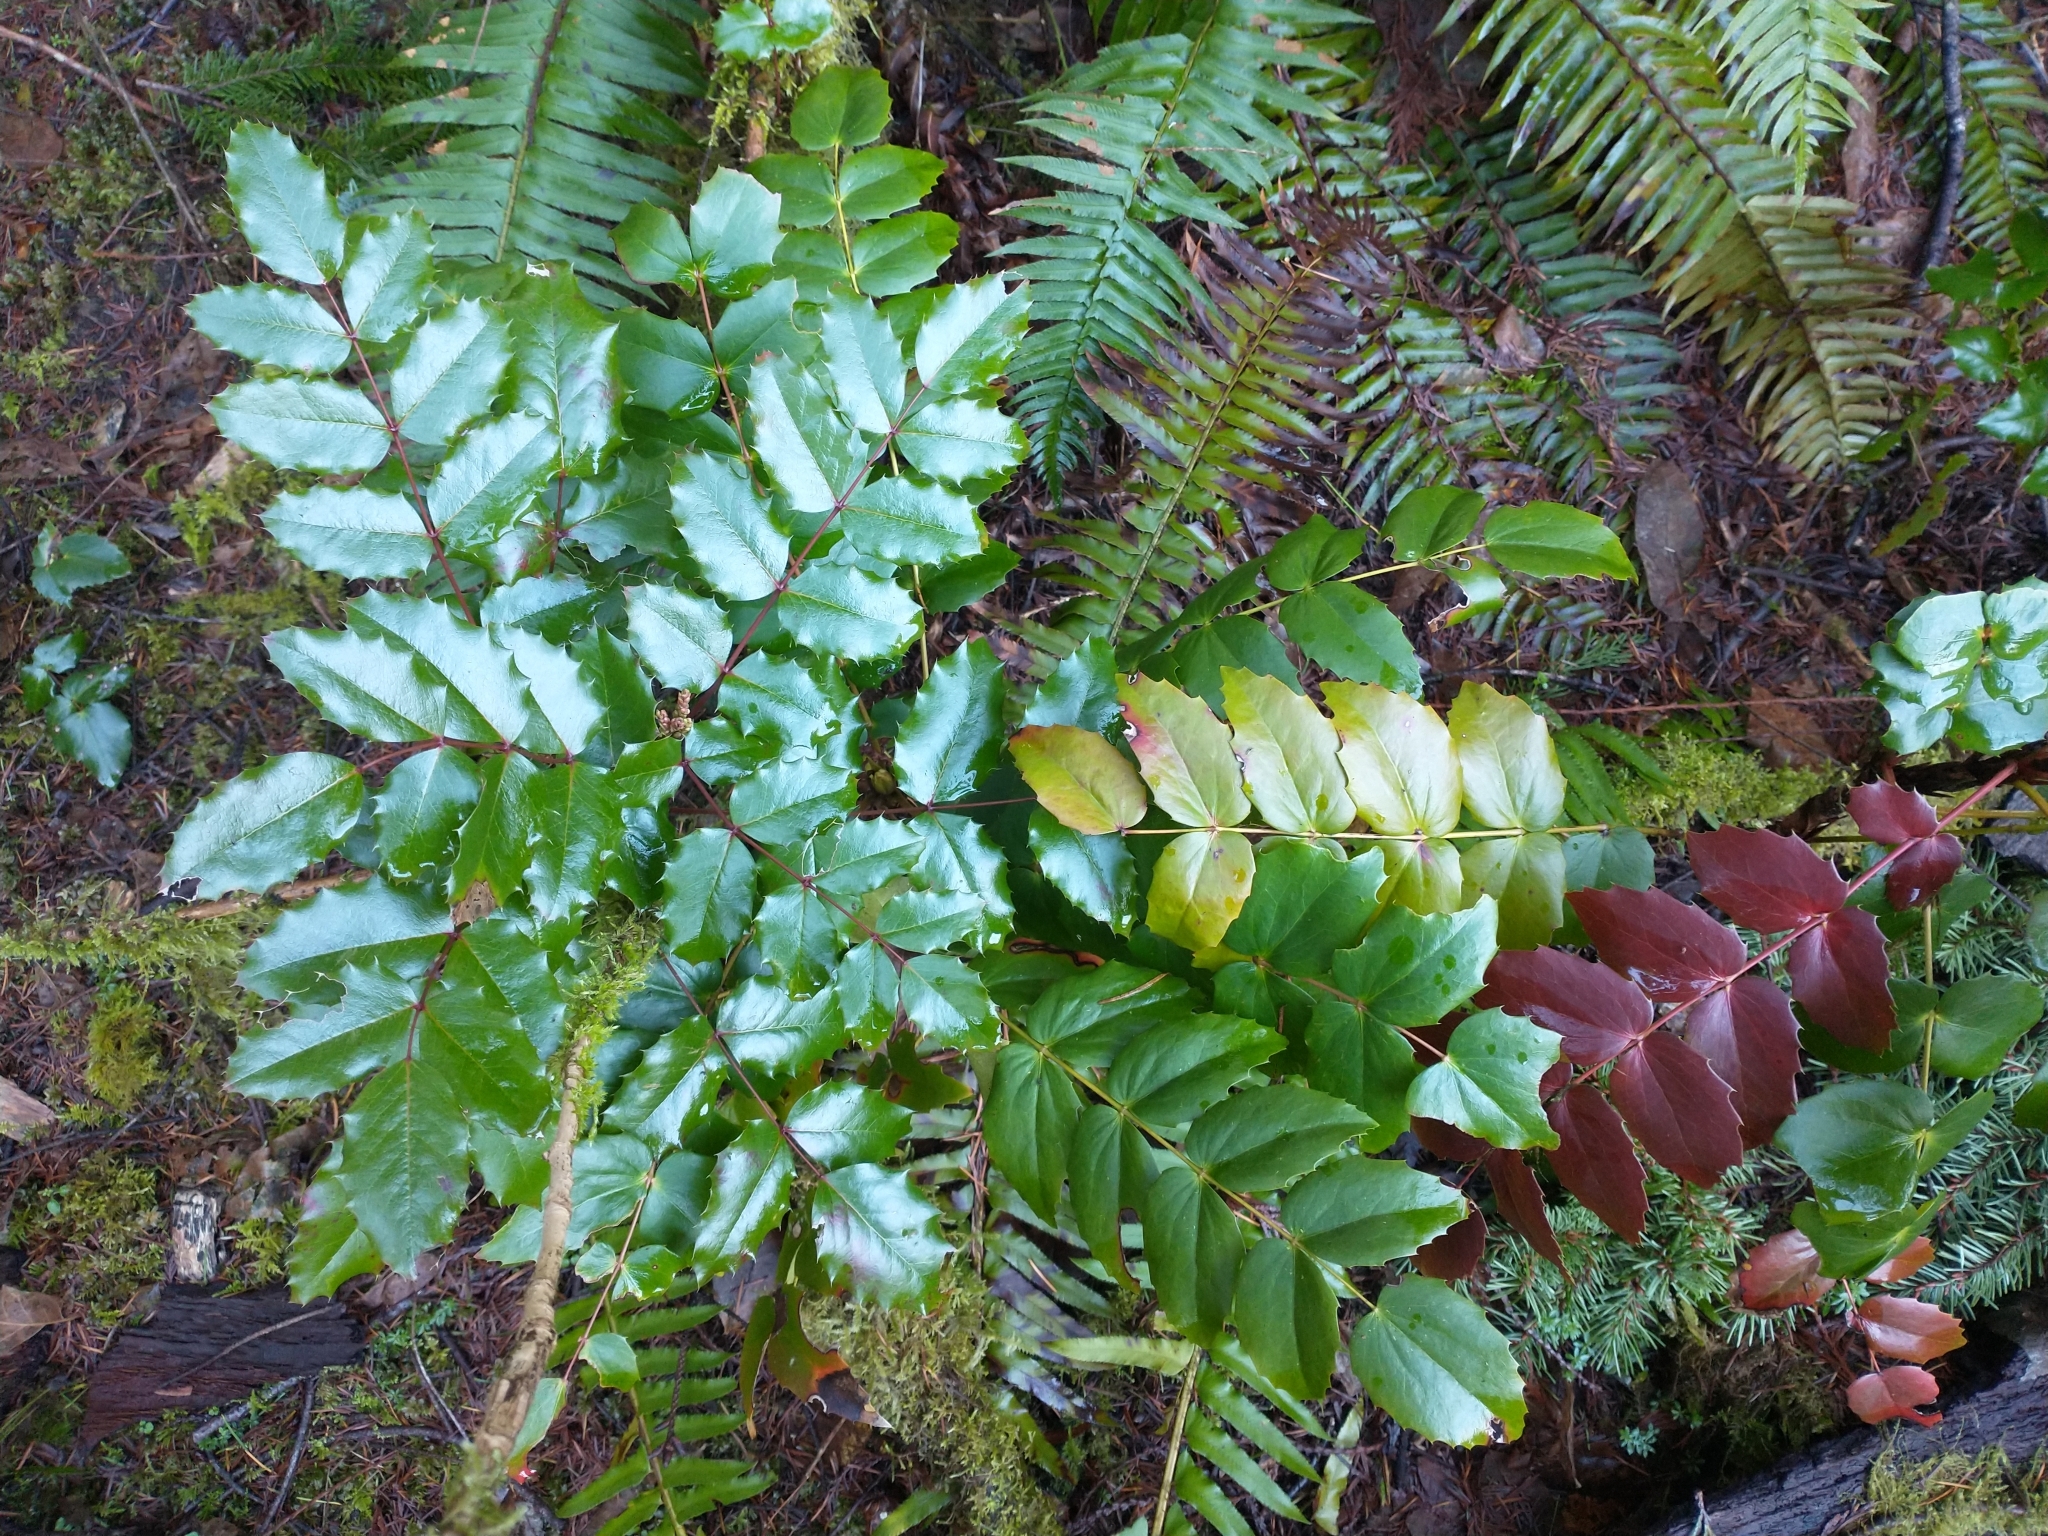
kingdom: Plantae
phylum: Tracheophyta
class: Magnoliopsida
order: Ranunculales
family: Berberidaceae
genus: Mahonia
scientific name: Mahonia nervosa
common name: Cascade oregon-grape
